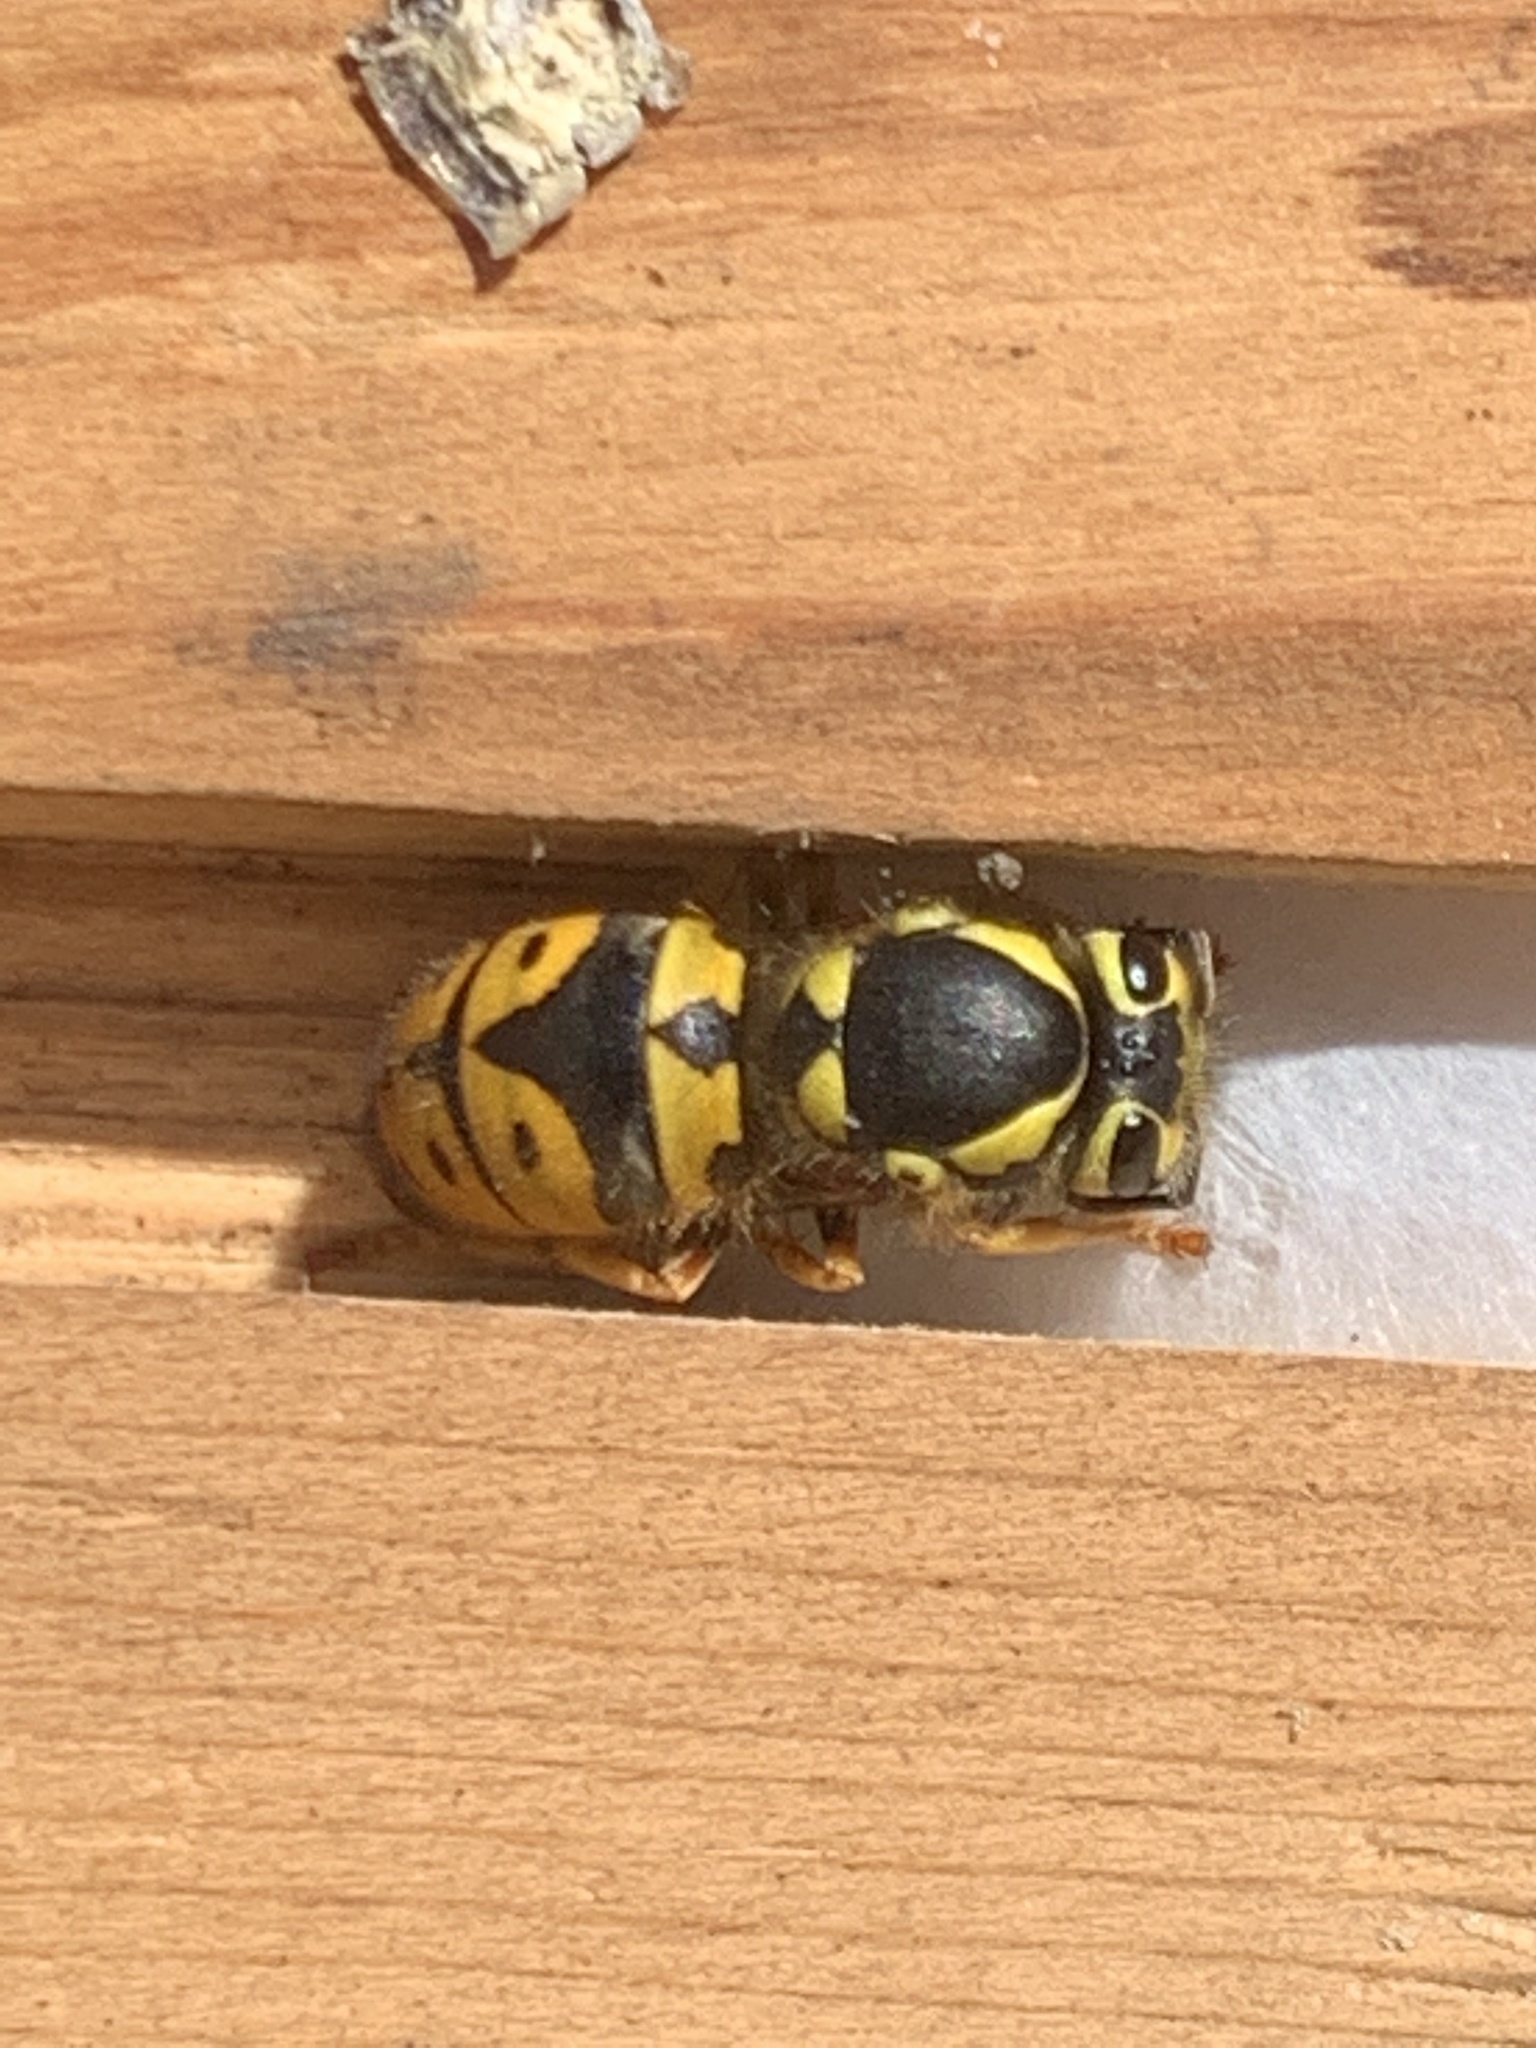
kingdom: Animalia
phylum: Arthropoda
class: Insecta
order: Hymenoptera
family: Vespidae
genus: Vespula
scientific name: Vespula pensylvanica
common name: Western yellowjacket
